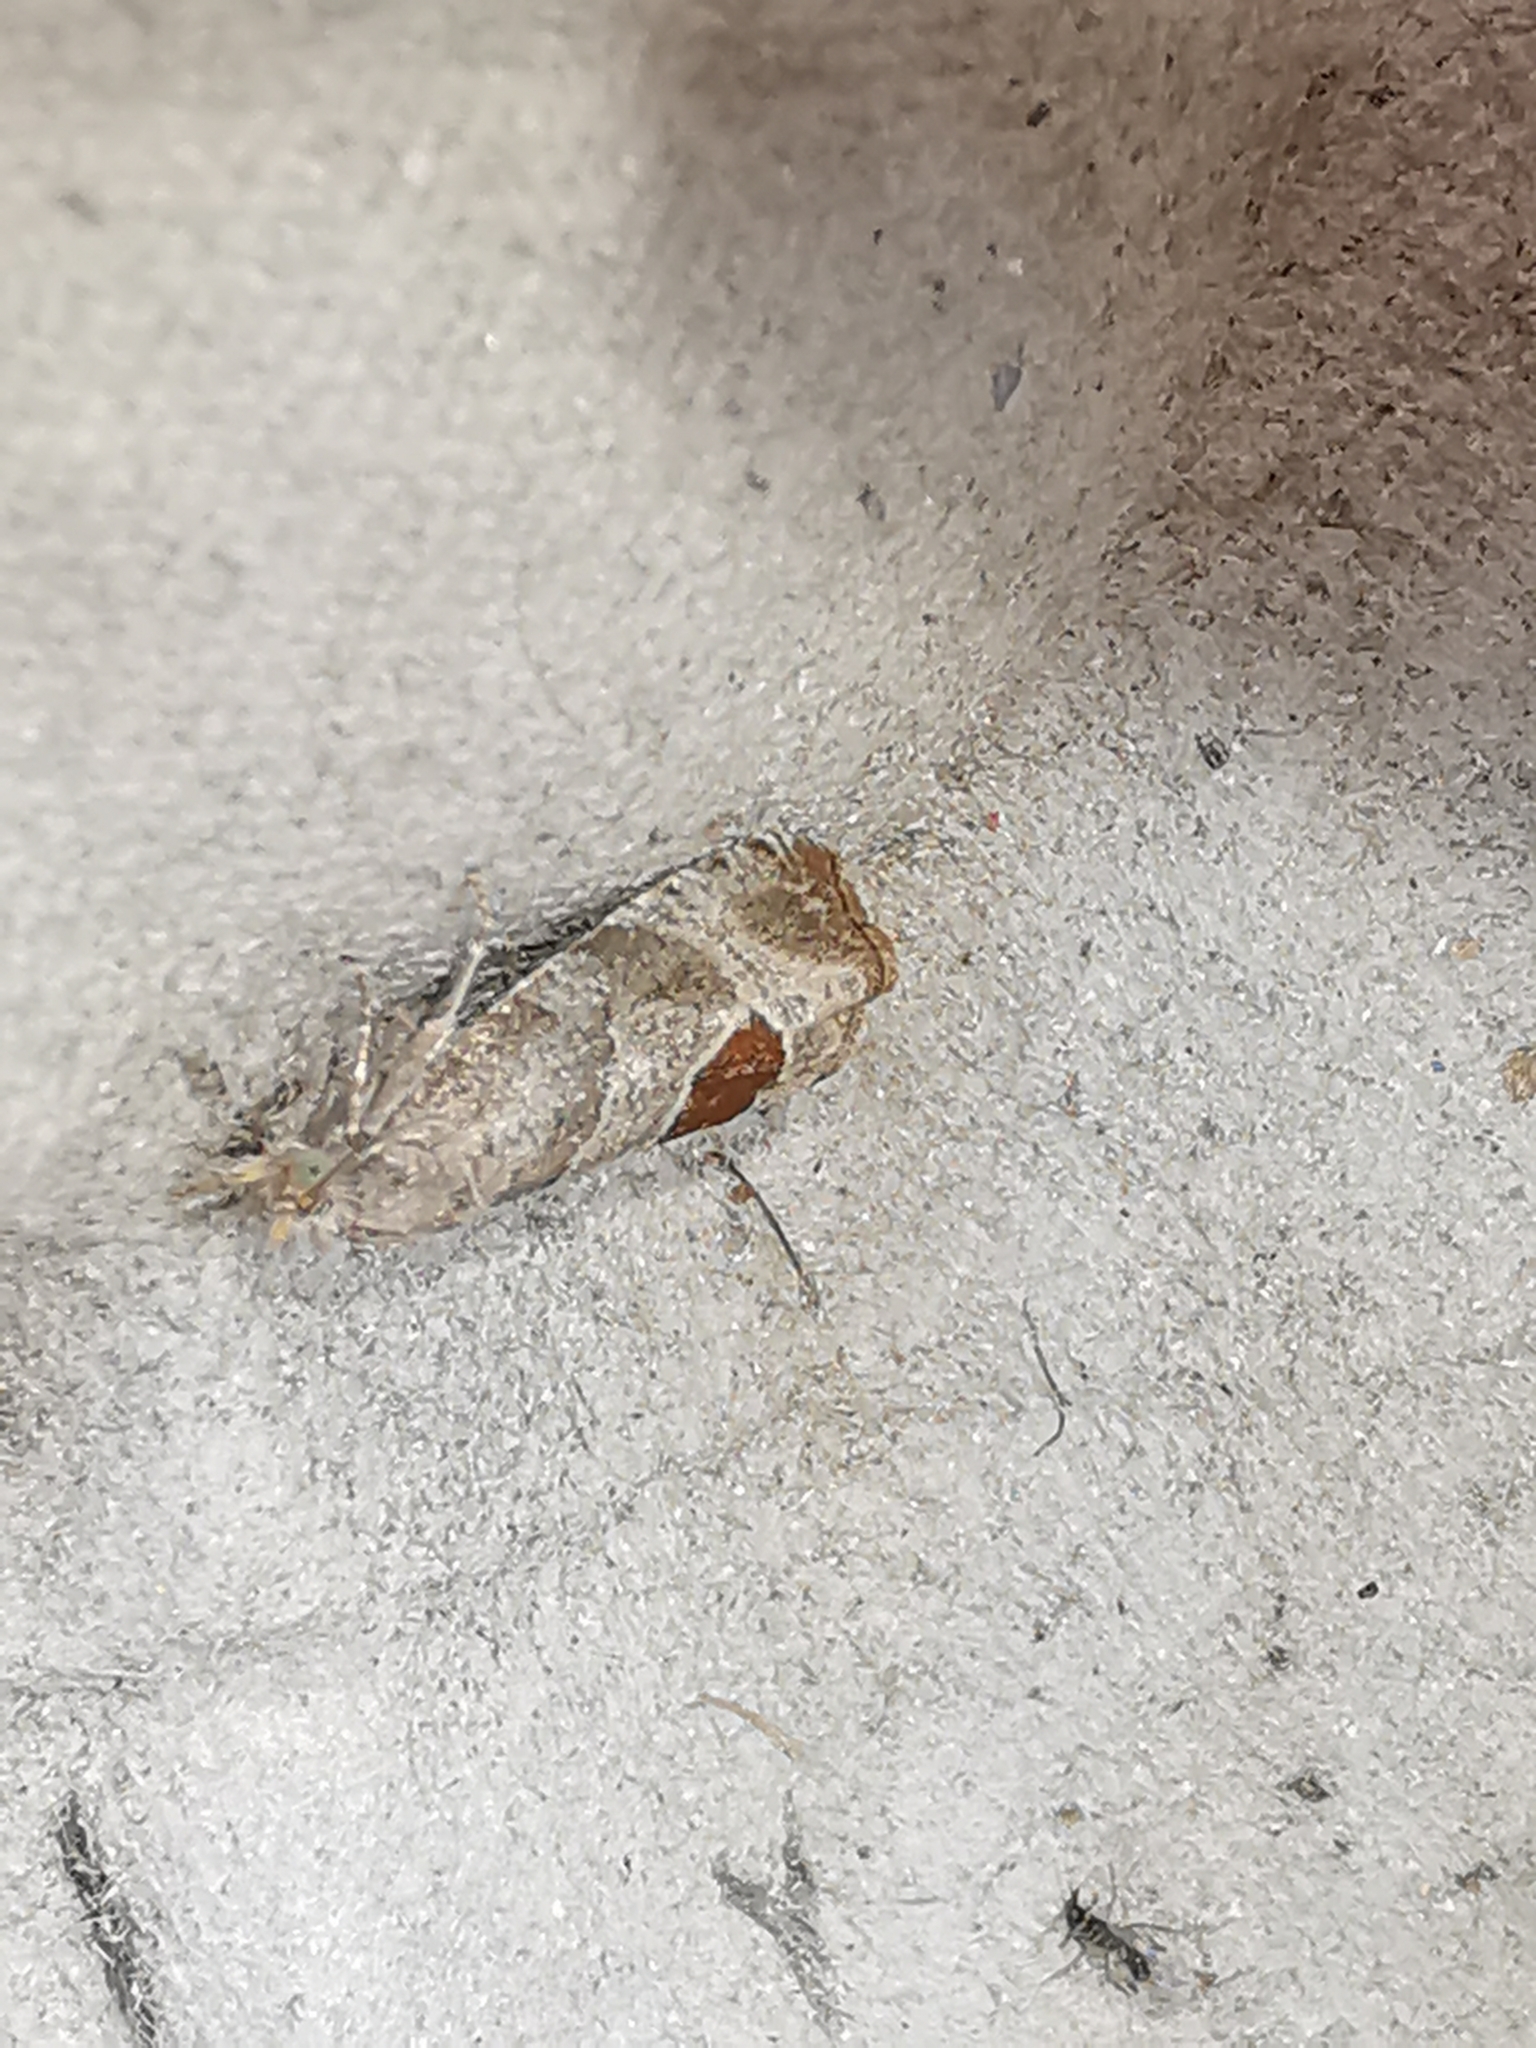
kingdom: Animalia
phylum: Arthropoda
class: Insecta
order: Lepidoptera
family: Tortricidae
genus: Notocelia
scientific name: Notocelia uddmanniana
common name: Bramble shoot moth
